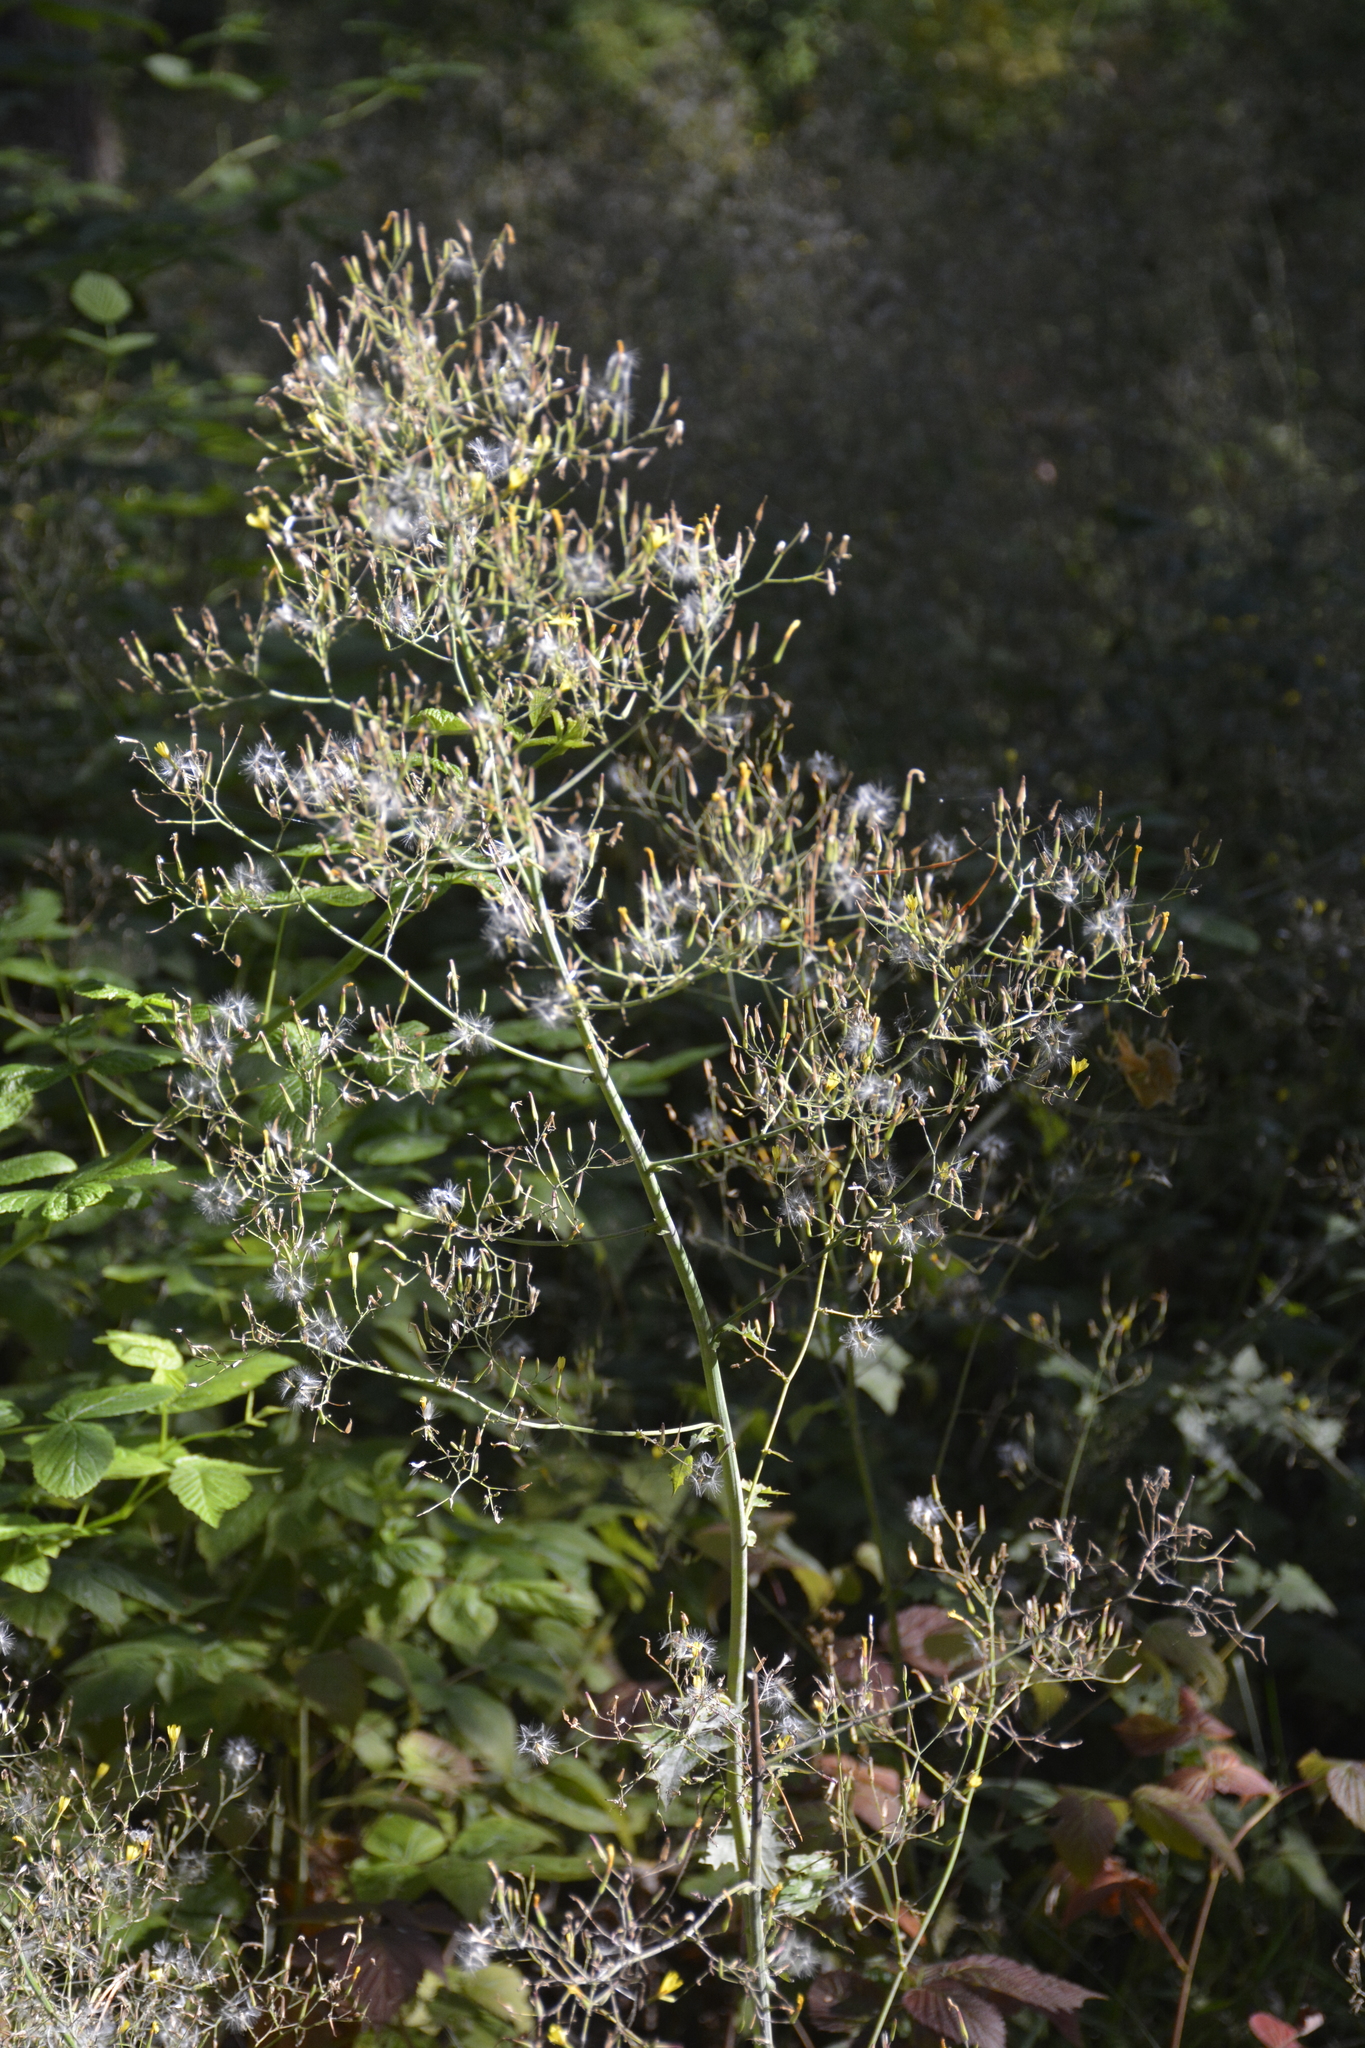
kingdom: Plantae
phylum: Tracheophyta
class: Magnoliopsida
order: Asterales
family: Asteraceae
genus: Mycelis
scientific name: Mycelis muralis
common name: Wall lettuce
